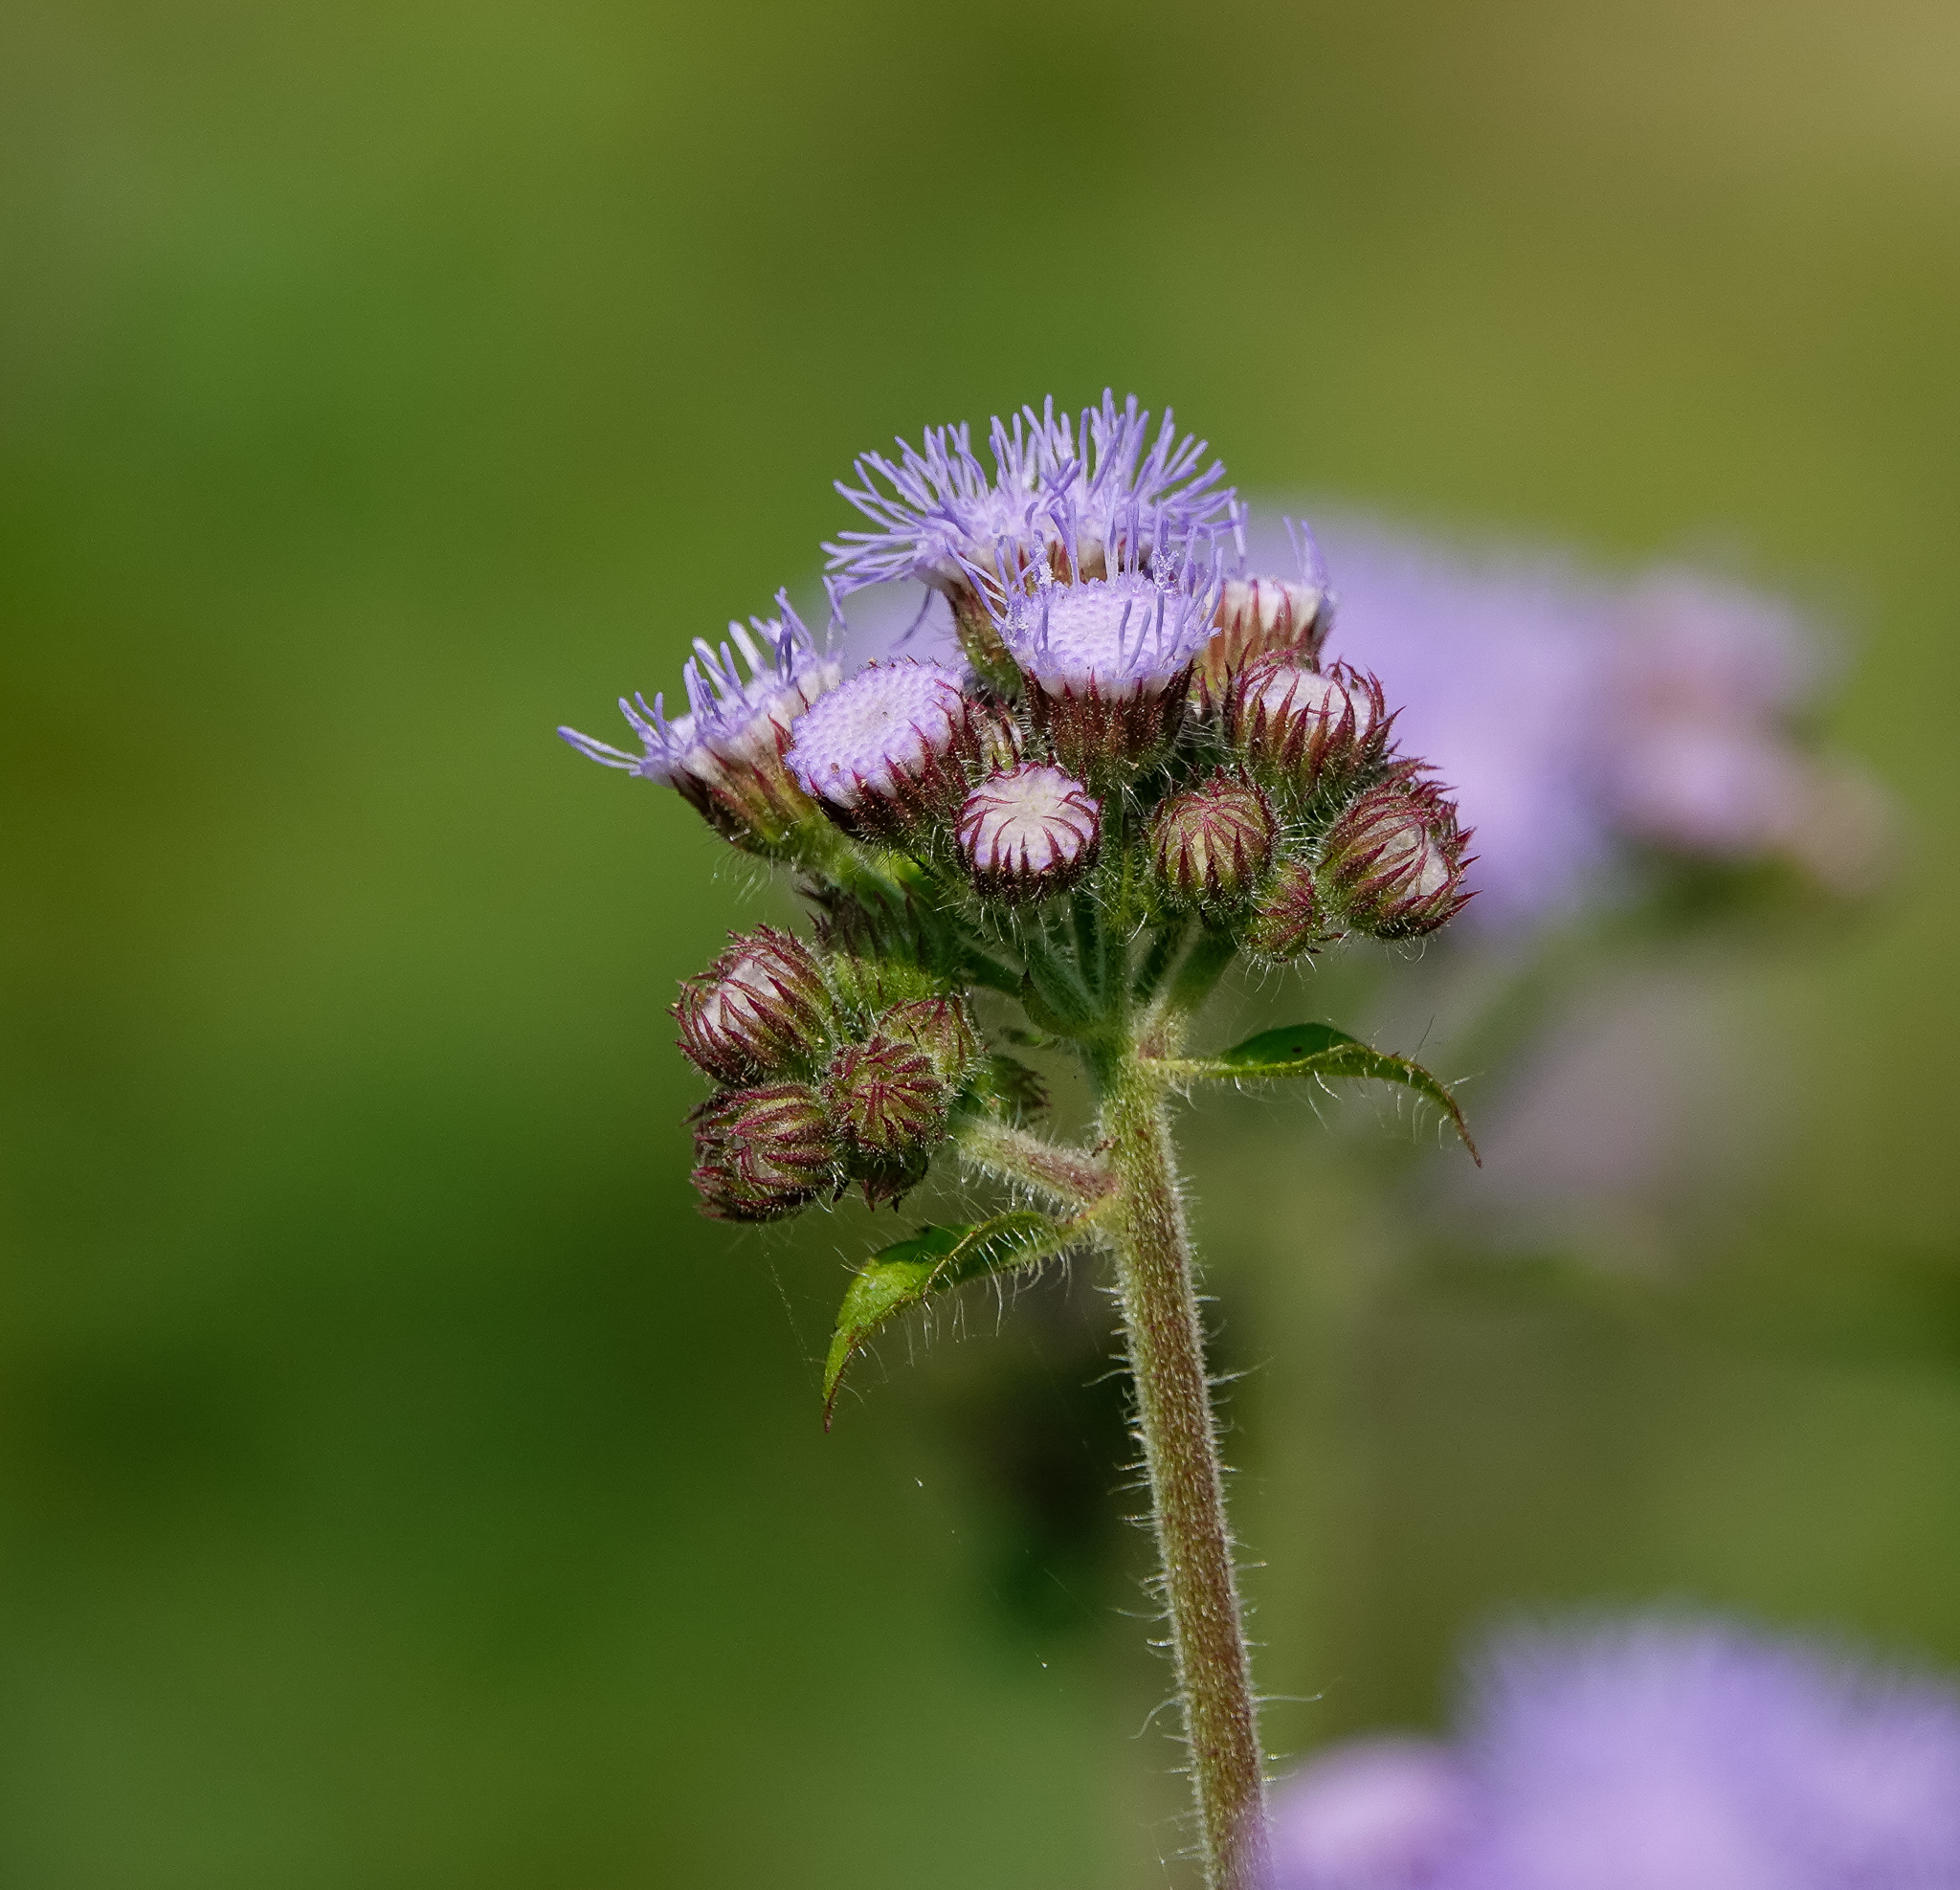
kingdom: Plantae
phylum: Tracheophyta
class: Magnoliopsida
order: Asterales
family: Asteraceae
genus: Ageratum
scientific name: Ageratum houstonianum
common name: Bluemink
